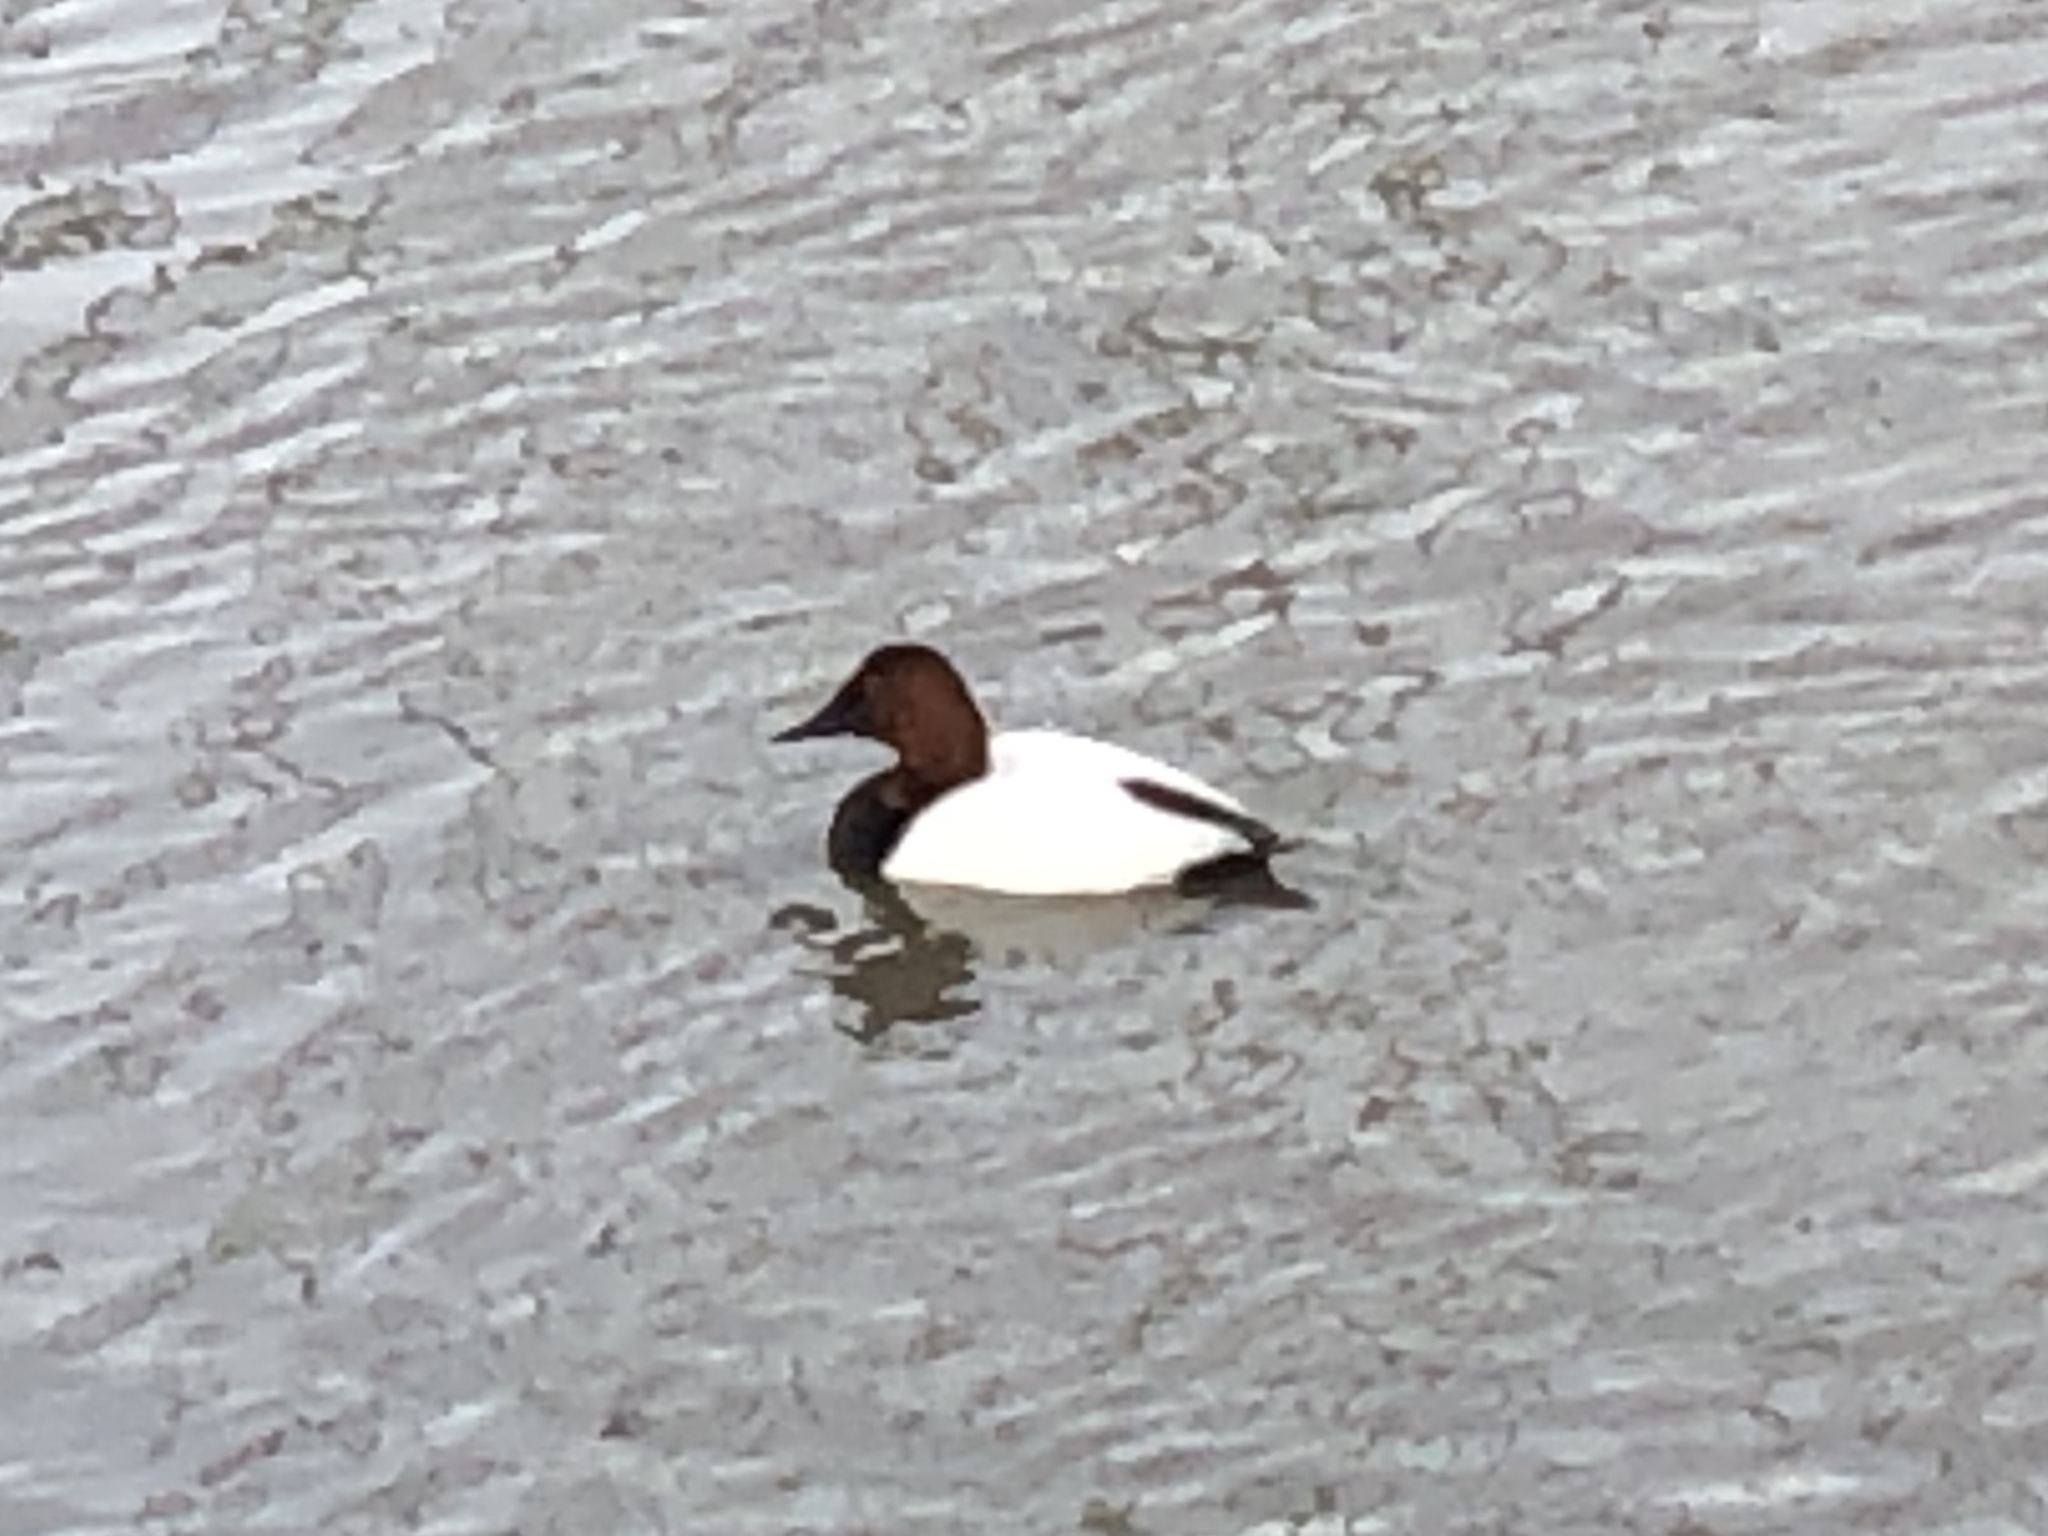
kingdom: Animalia
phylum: Chordata
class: Aves
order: Anseriformes
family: Anatidae
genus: Aythya
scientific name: Aythya valisineria
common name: Canvasback
